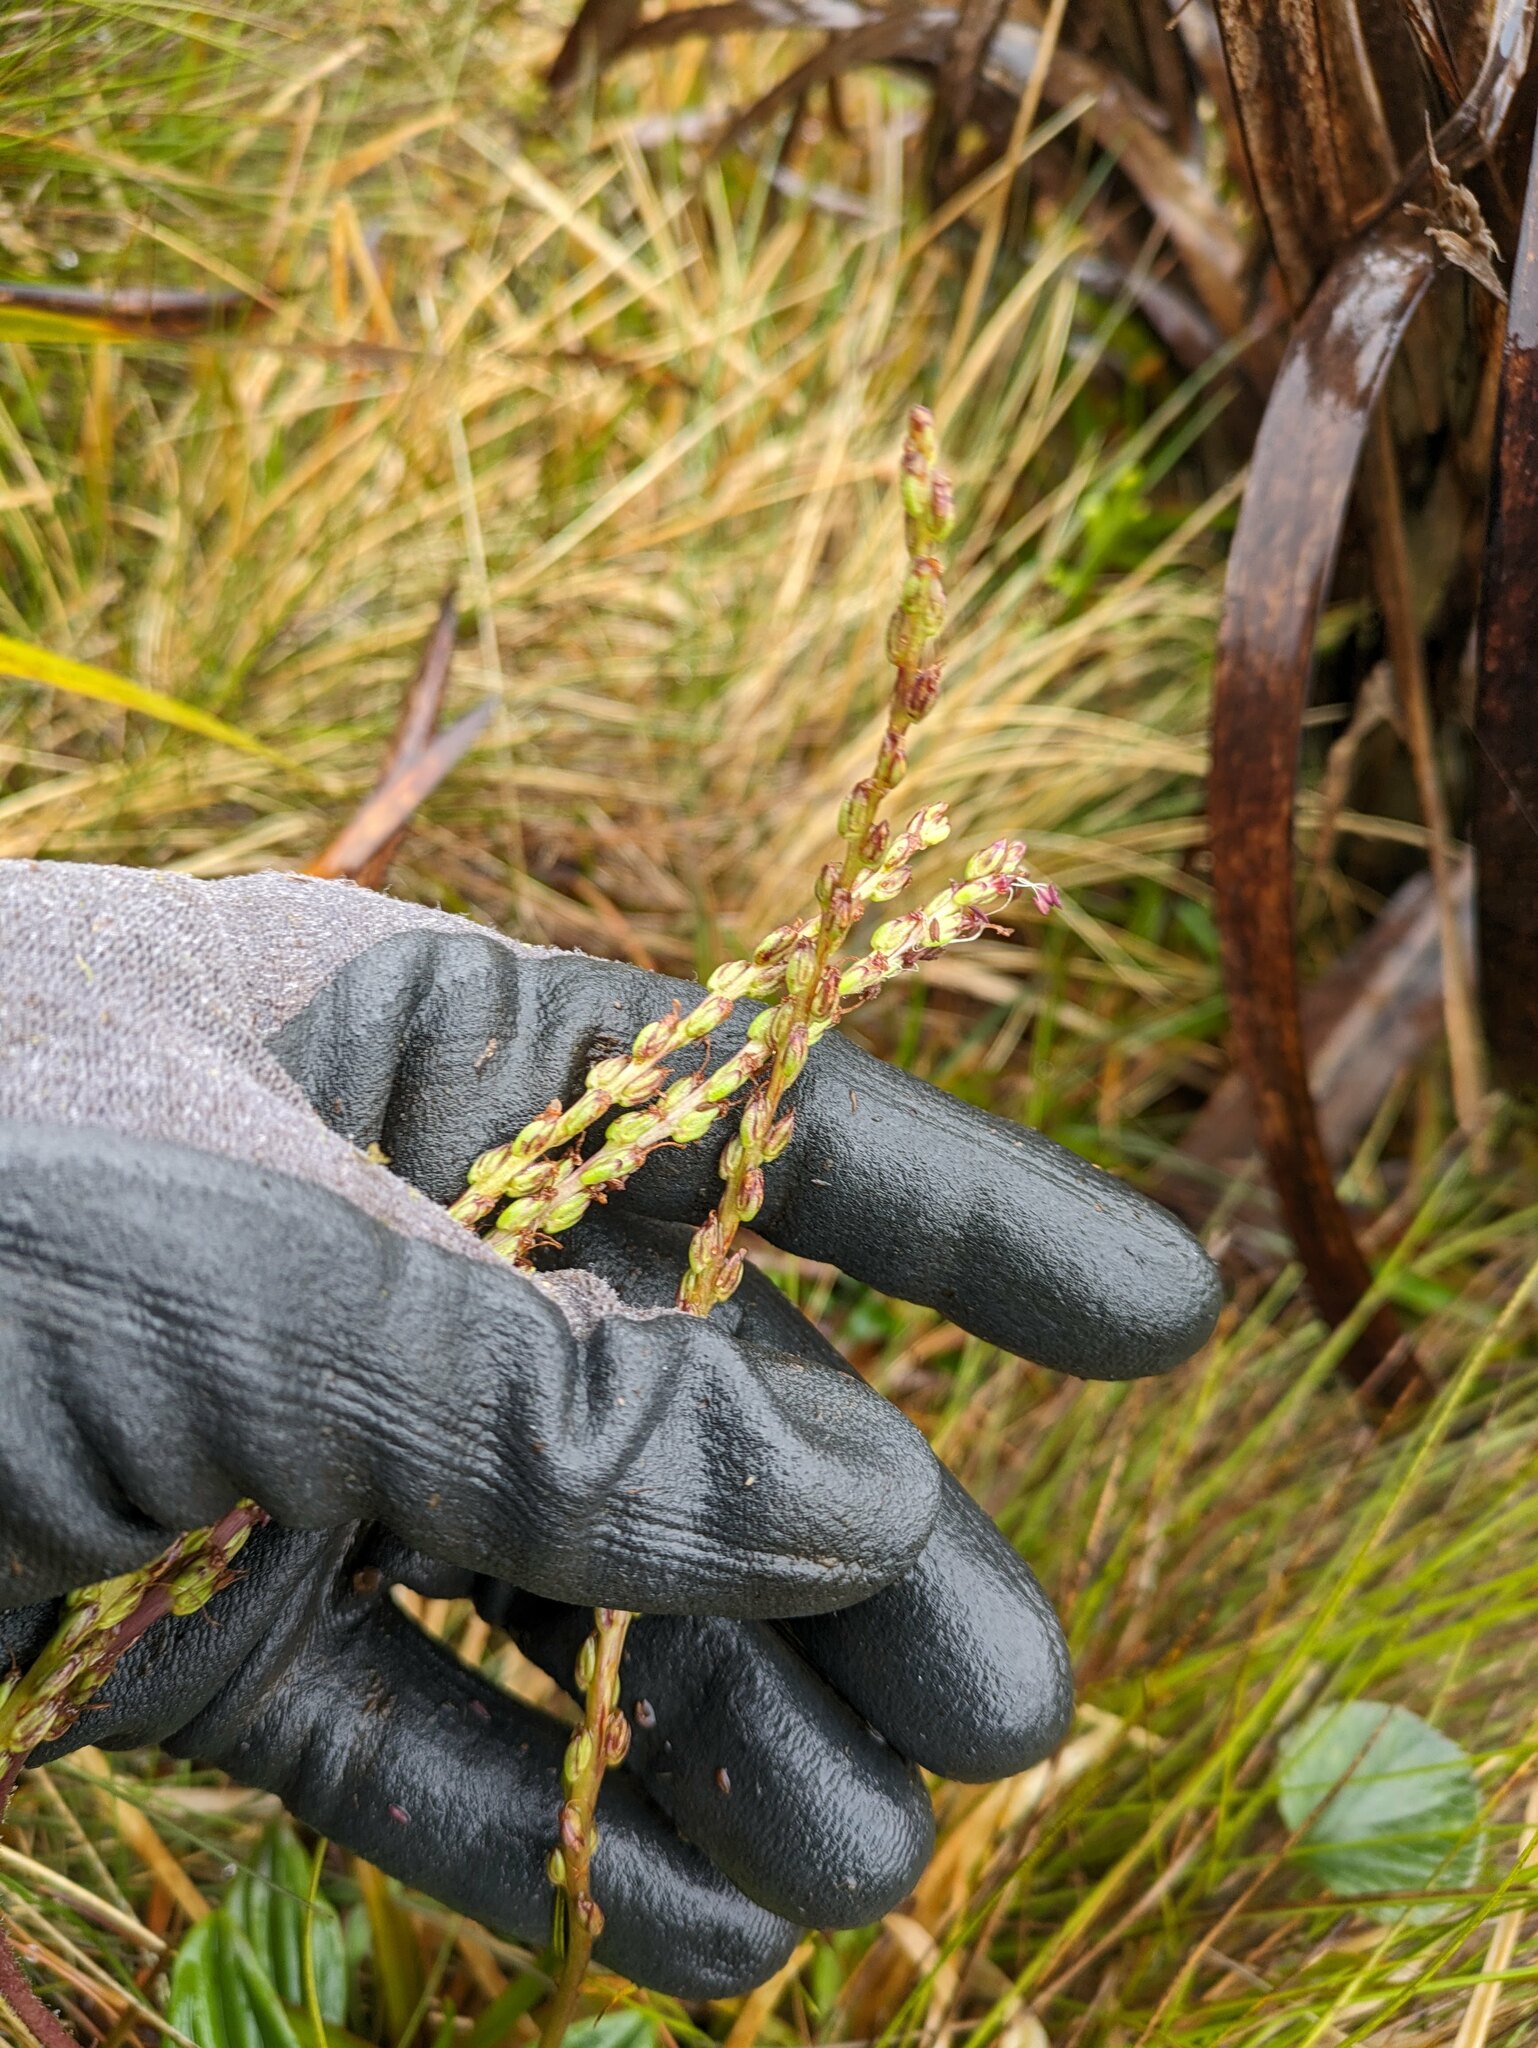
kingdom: Plantae
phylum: Tracheophyta
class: Magnoliopsida
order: Lamiales
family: Plantaginaceae
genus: Plantago
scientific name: Plantago pachyphylla
